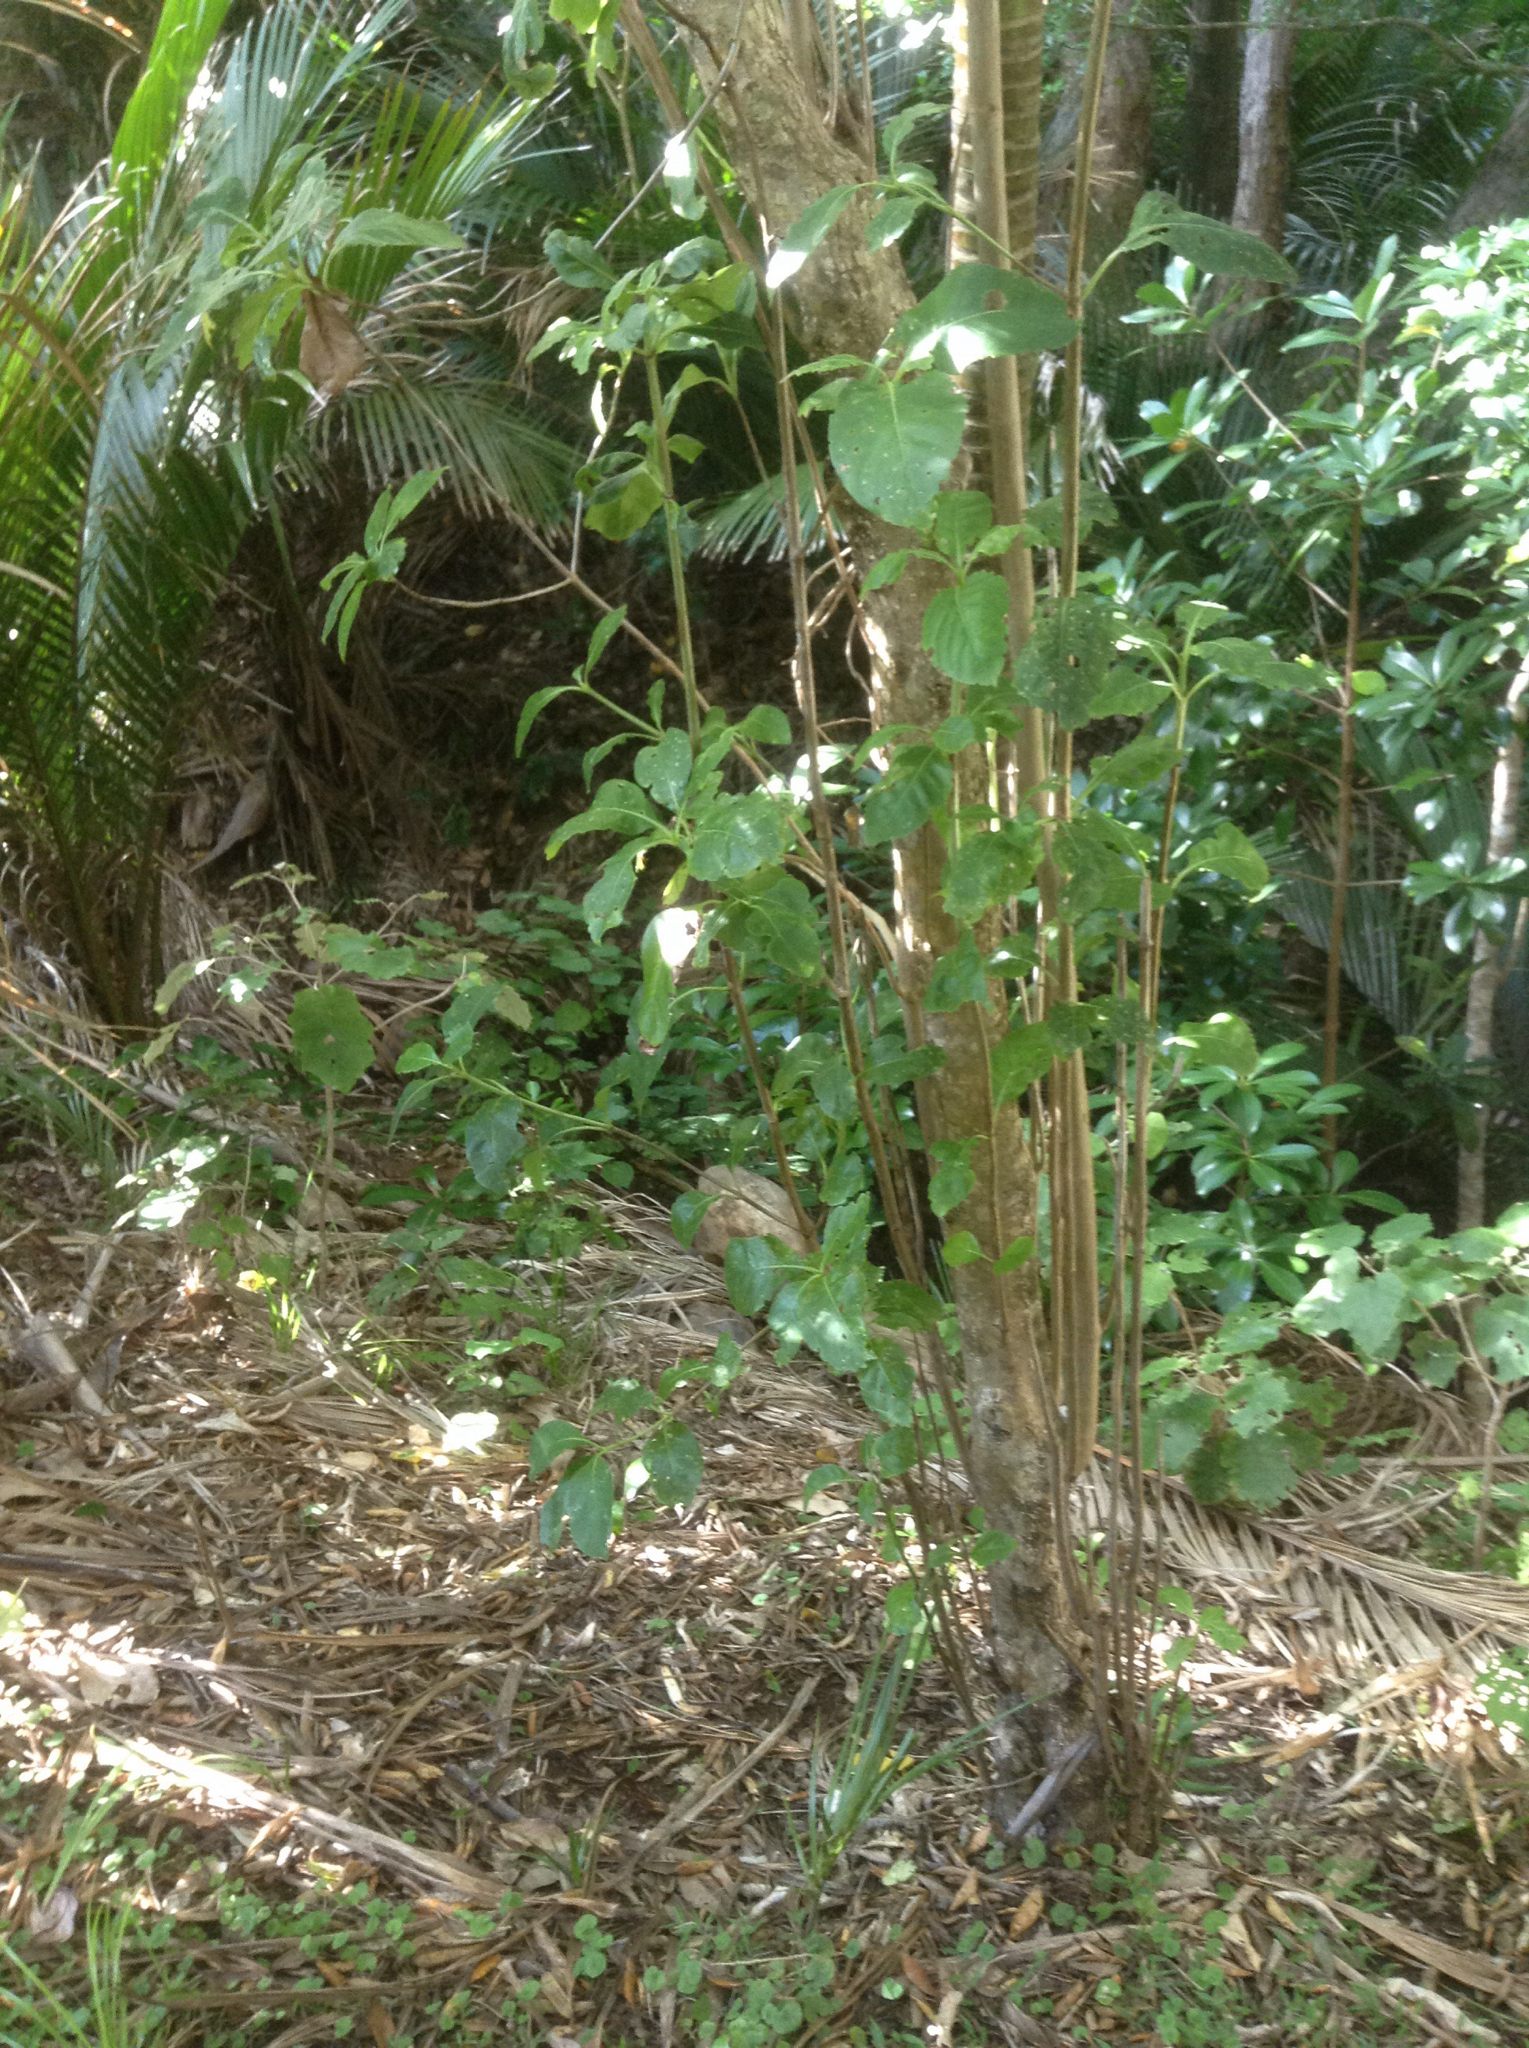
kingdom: Plantae
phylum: Tracheophyta
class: Magnoliopsida
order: Gentianales
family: Rubiaceae
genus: Coprosma
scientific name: Coprosma macrocarpa
